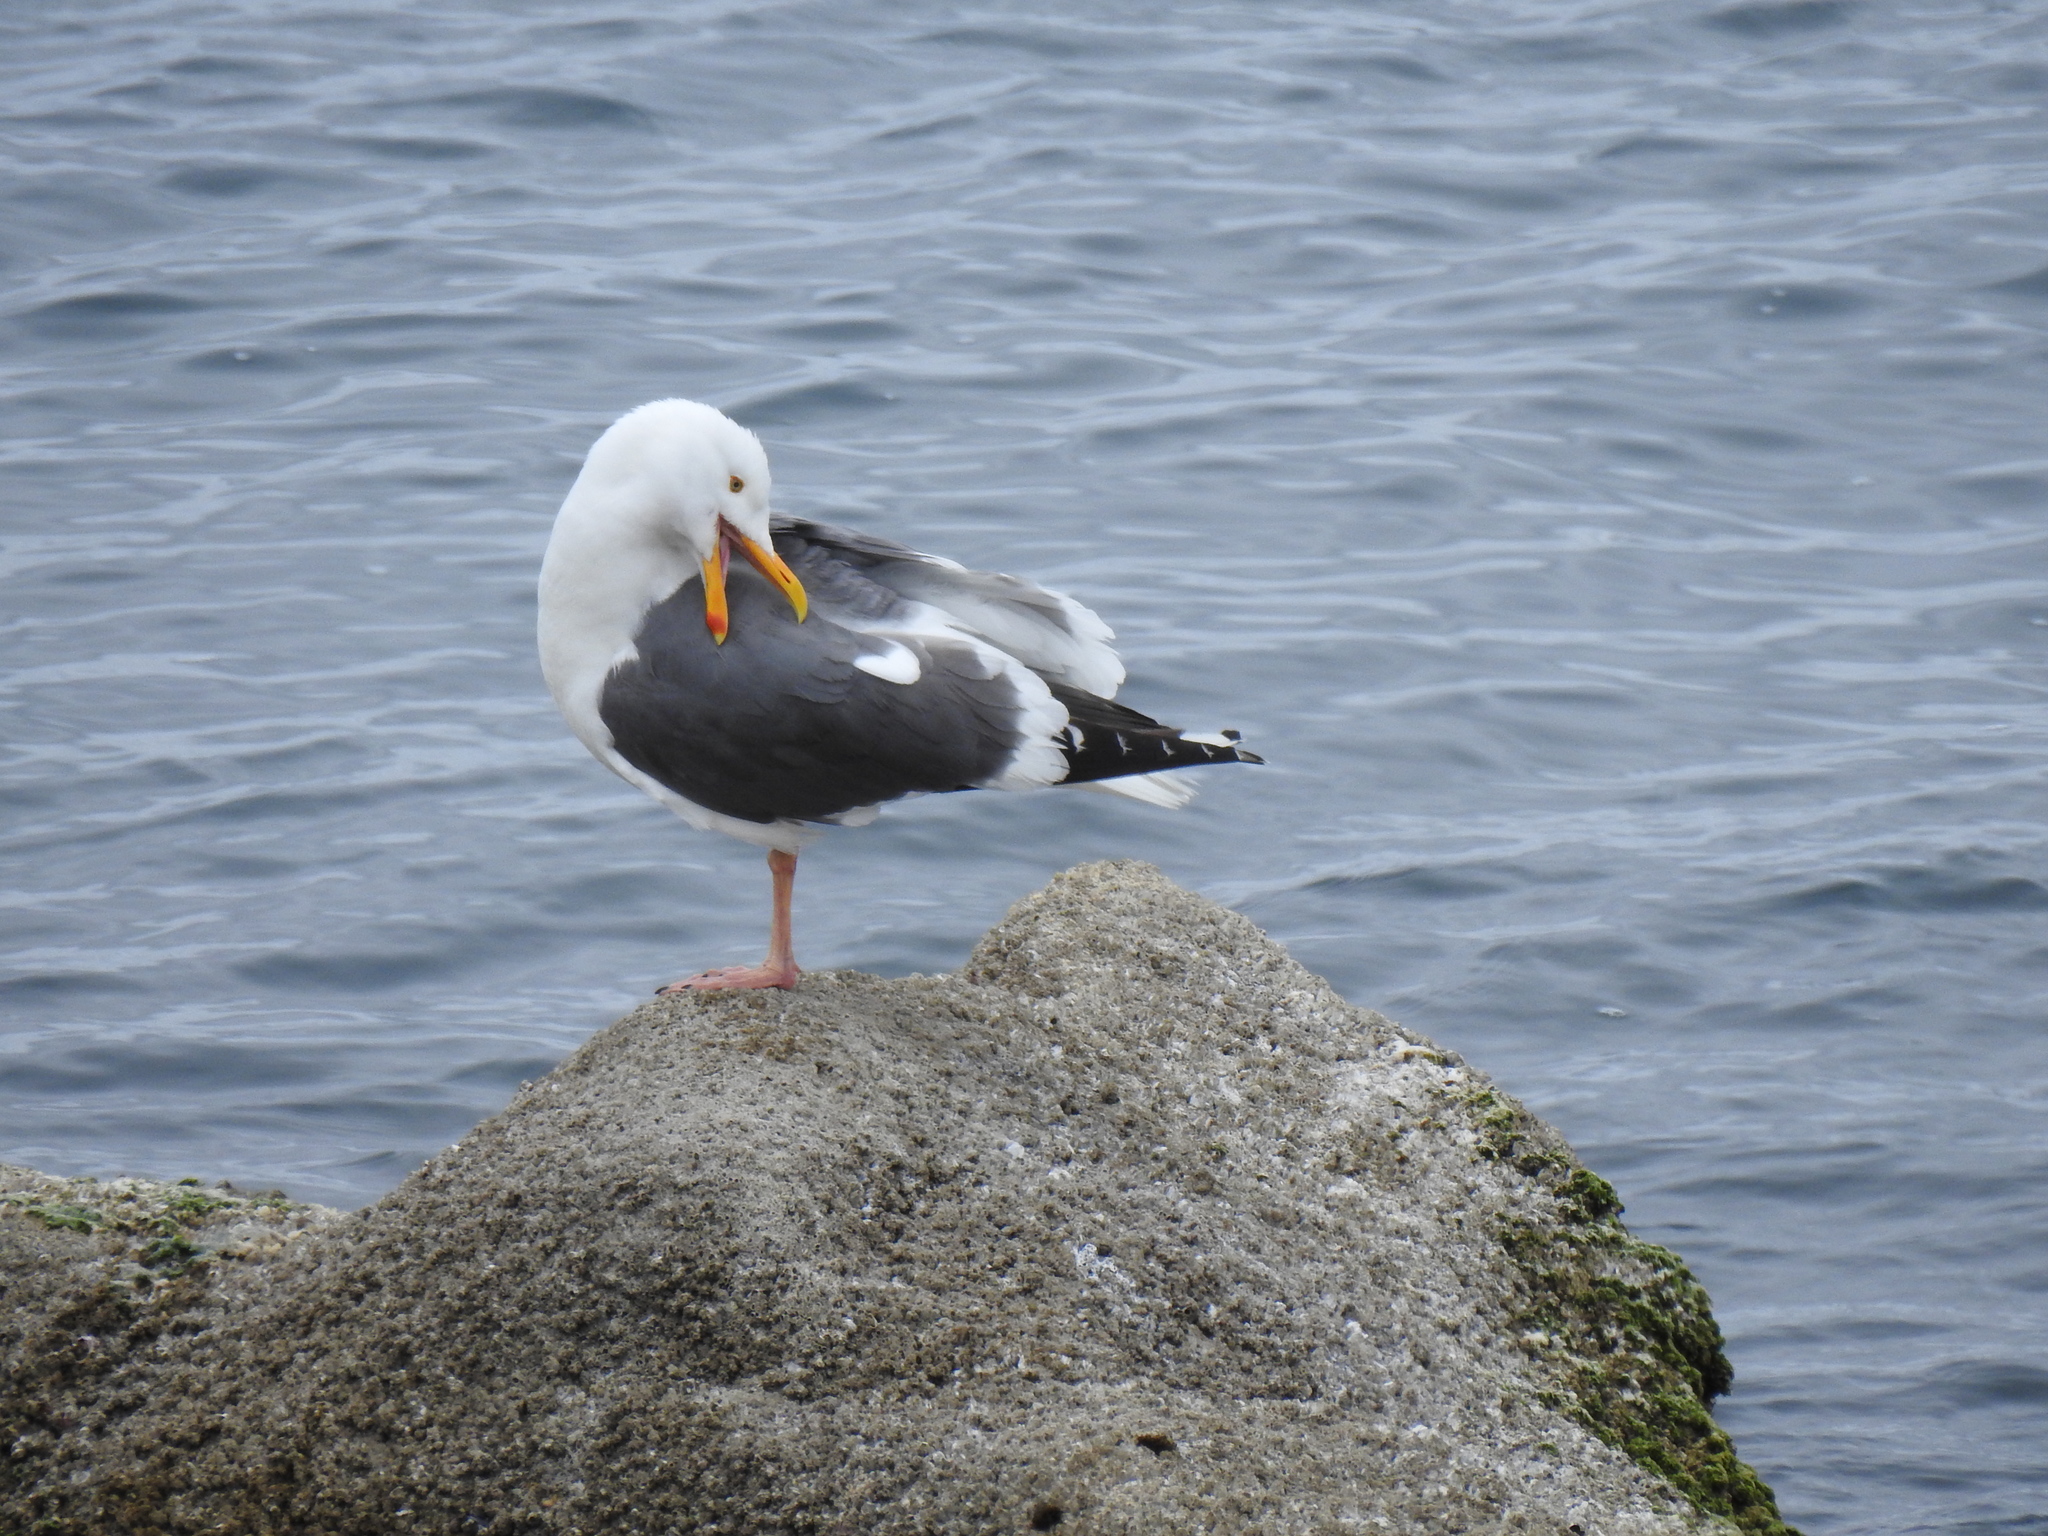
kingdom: Animalia
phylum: Chordata
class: Aves
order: Charadriiformes
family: Laridae
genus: Larus
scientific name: Larus occidentalis
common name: Western gull
